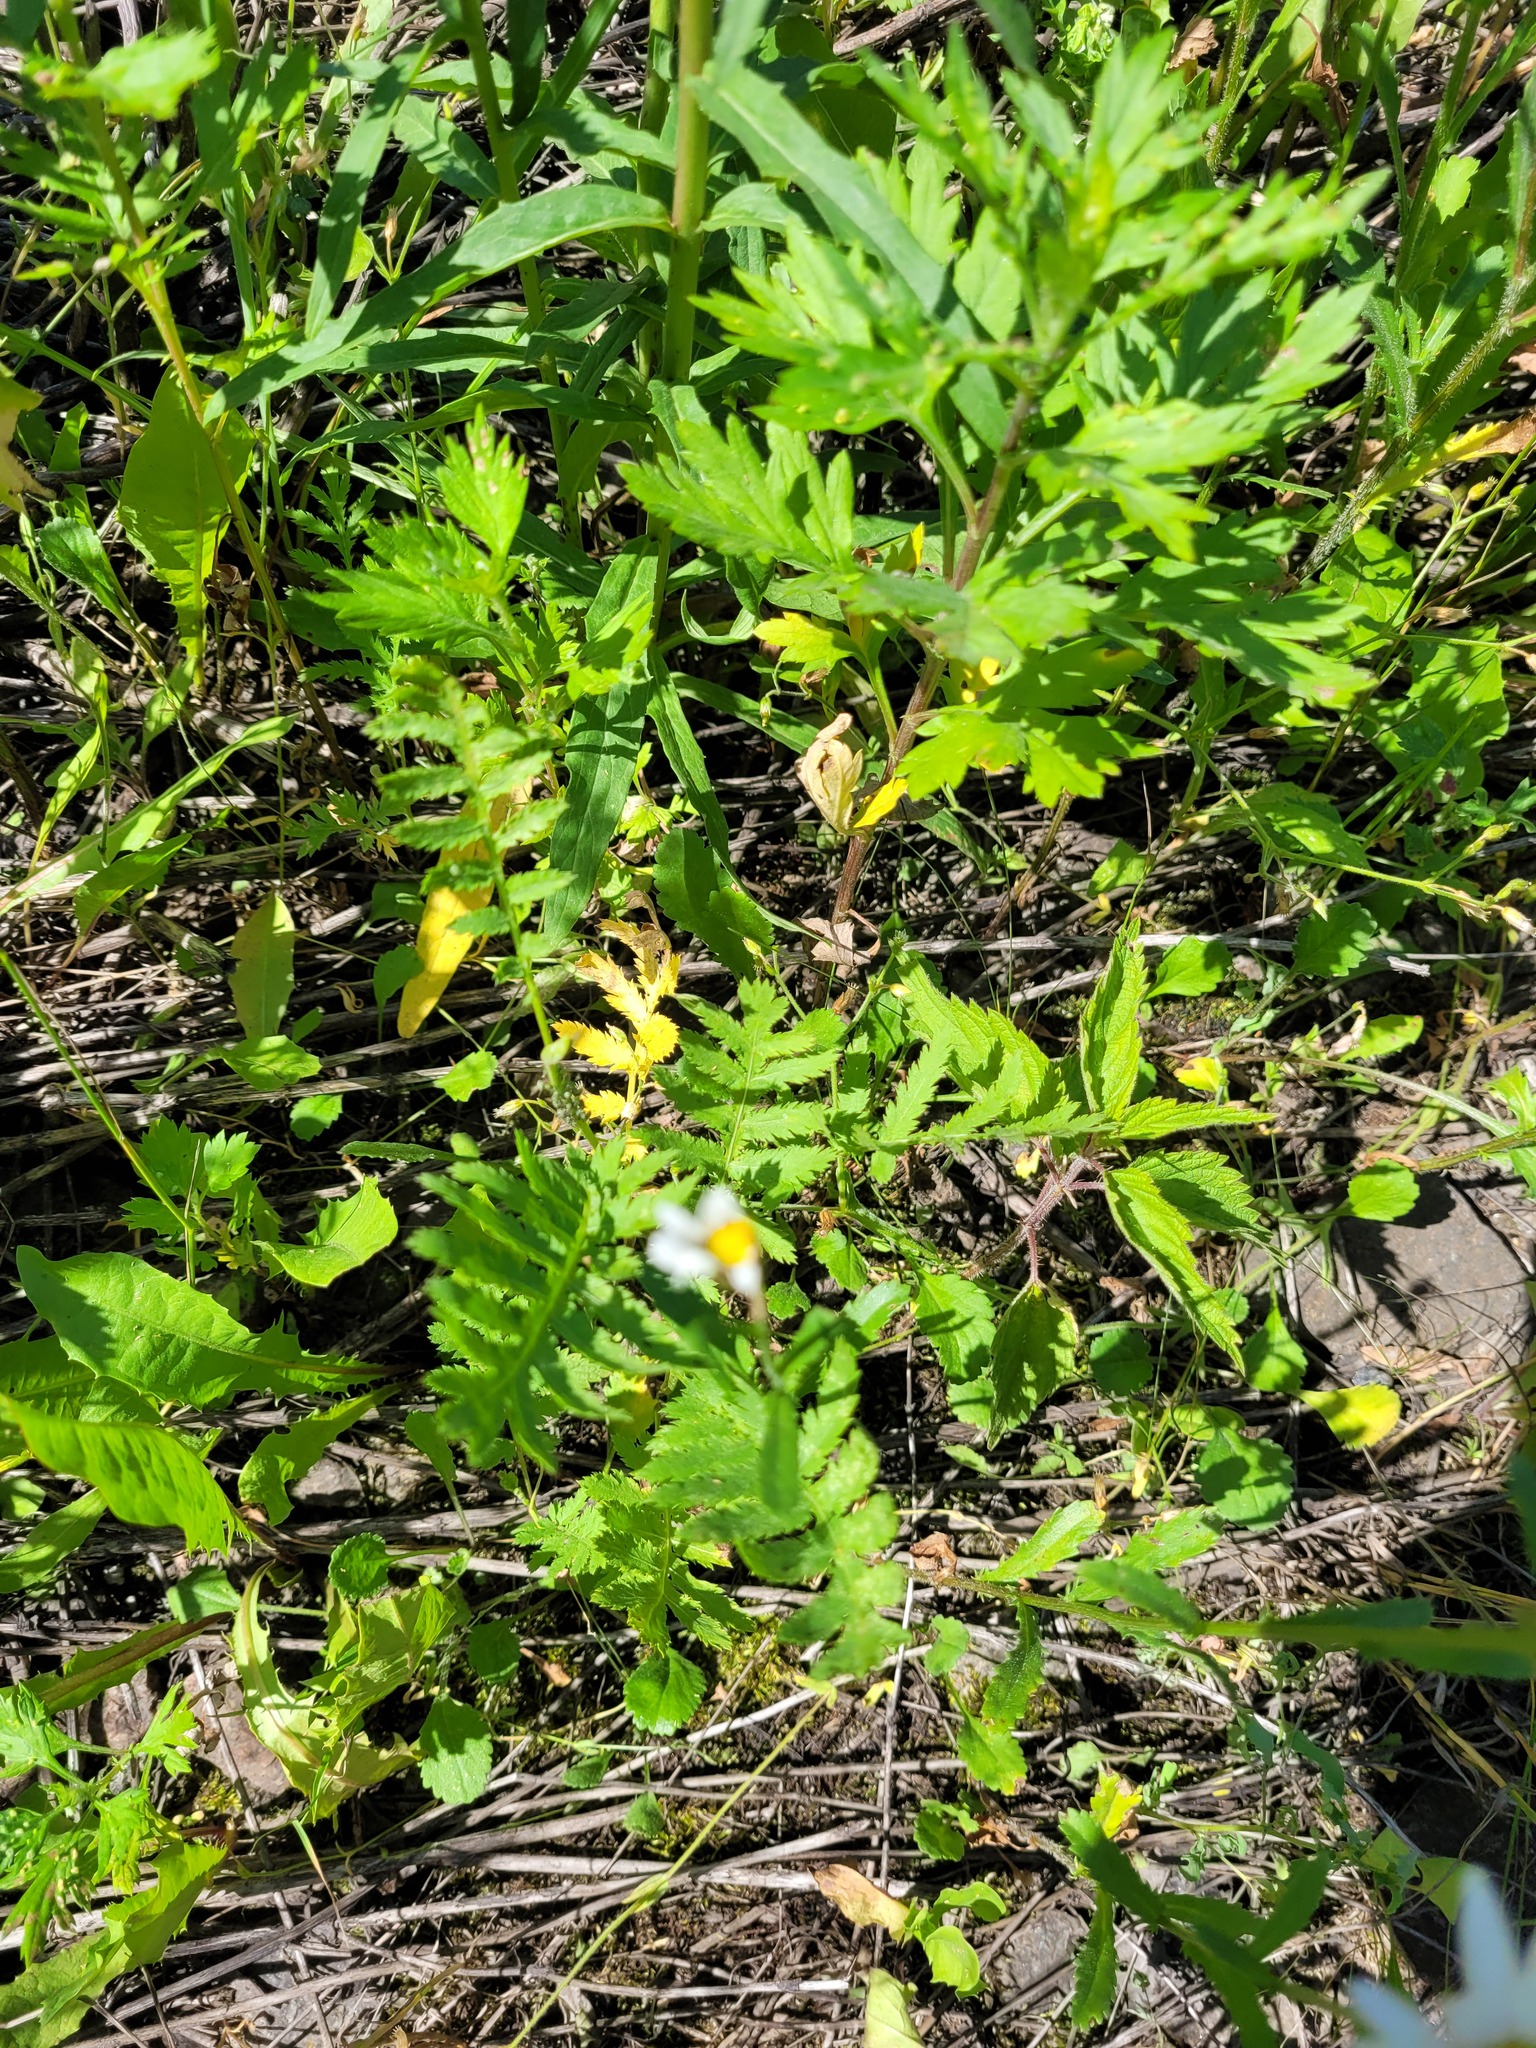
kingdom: Plantae
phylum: Tracheophyta
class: Magnoliopsida
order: Asterales
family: Asteraceae
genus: Tanacetum
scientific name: Tanacetum vulgare
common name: Common tansy
